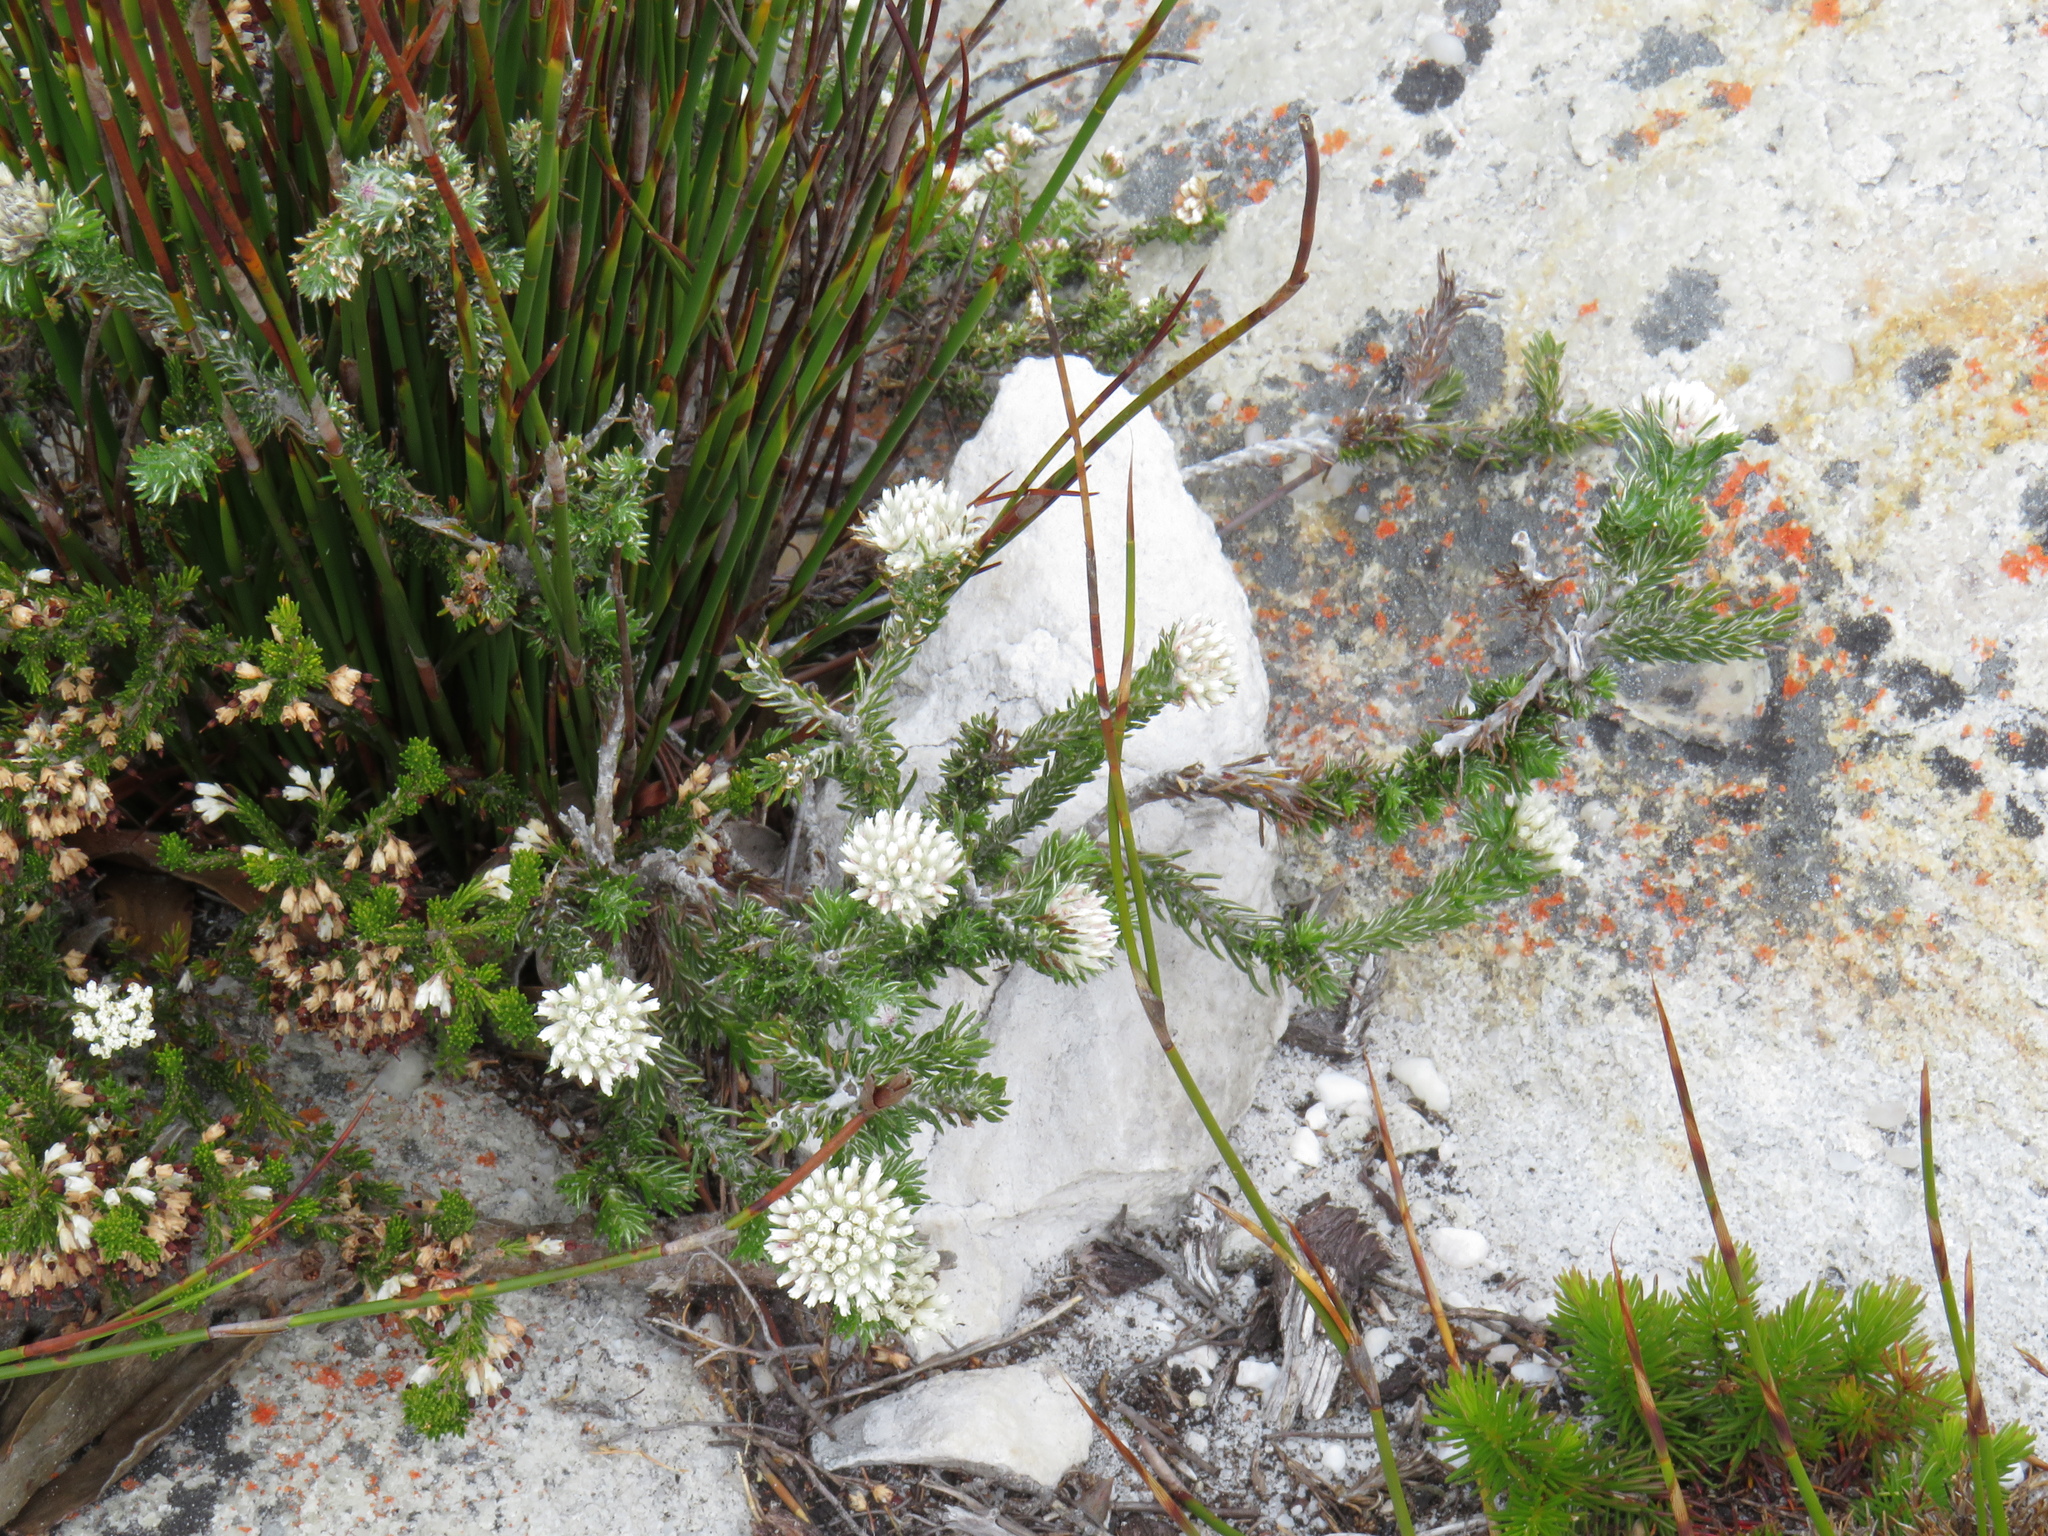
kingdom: Plantae
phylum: Tracheophyta
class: Magnoliopsida
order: Asterales
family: Asteraceae
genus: Metalasia
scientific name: Metalasia compacta
